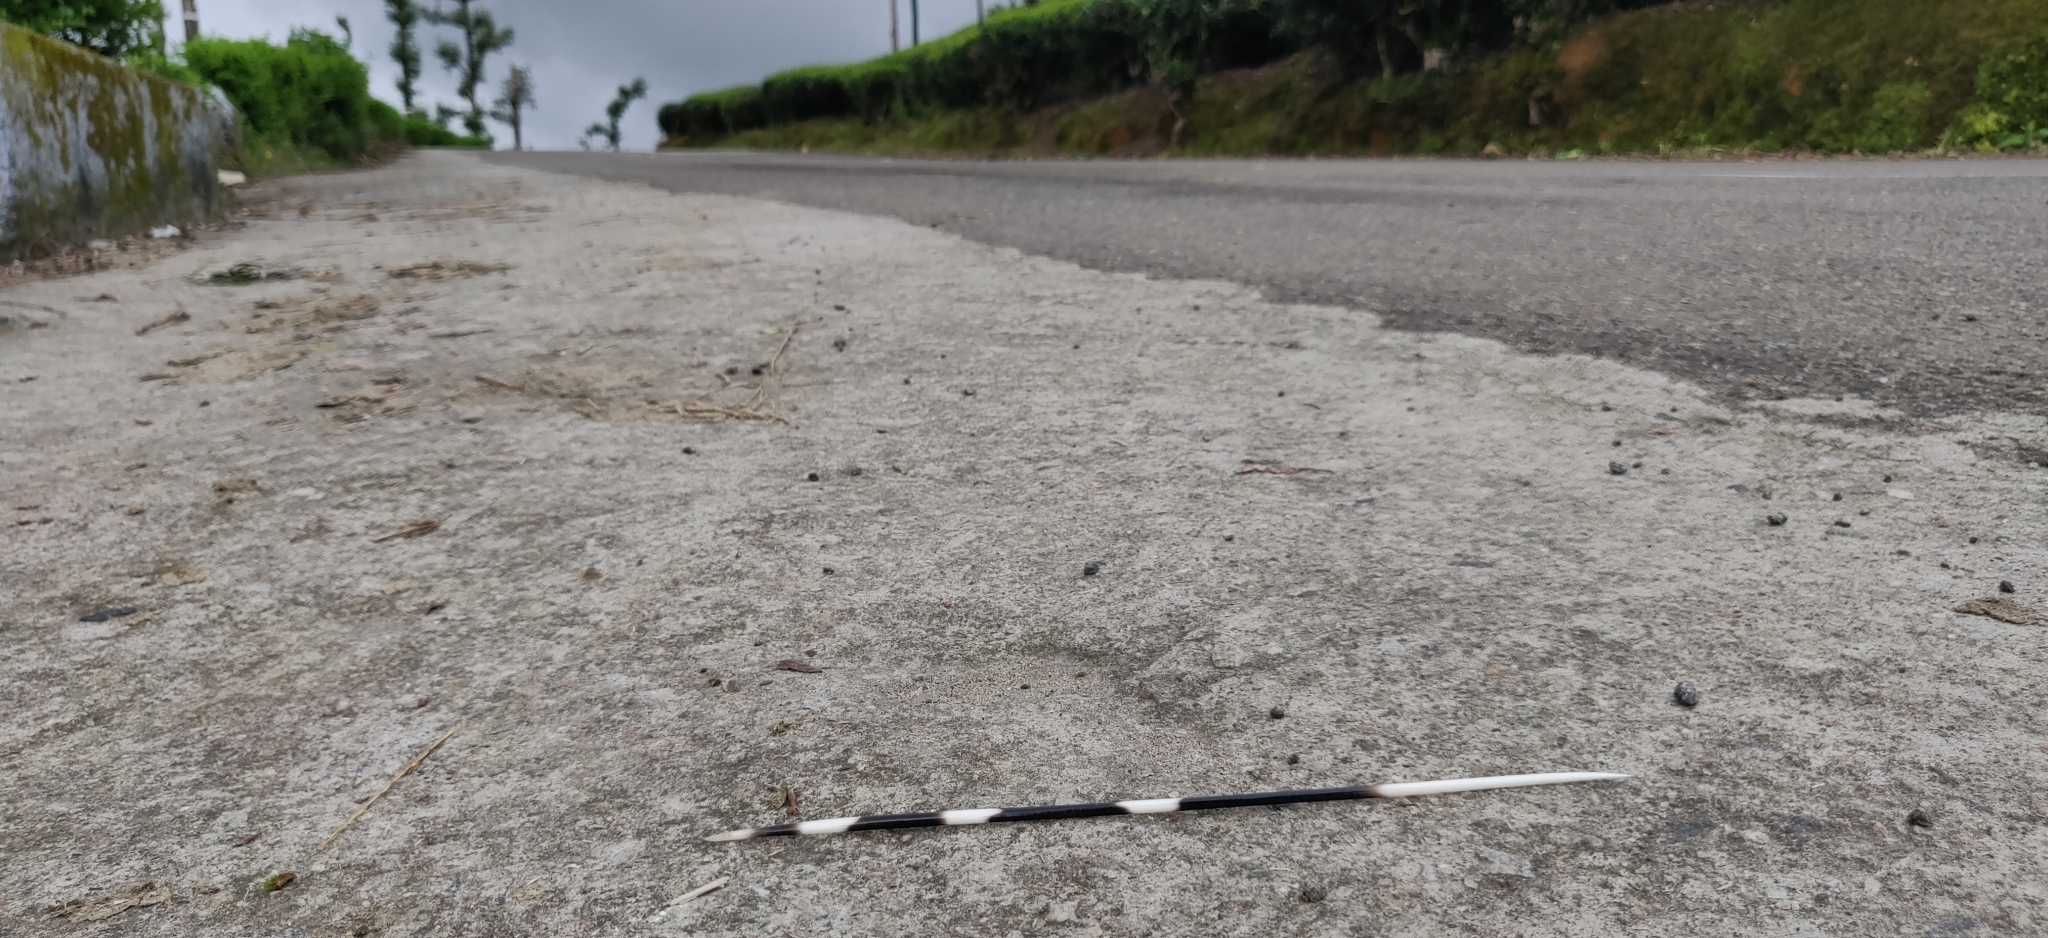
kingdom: Animalia
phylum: Chordata
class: Mammalia
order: Rodentia
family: Hystricidae
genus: Hystrix
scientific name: Hystrix indica
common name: Indian crested porcupine
